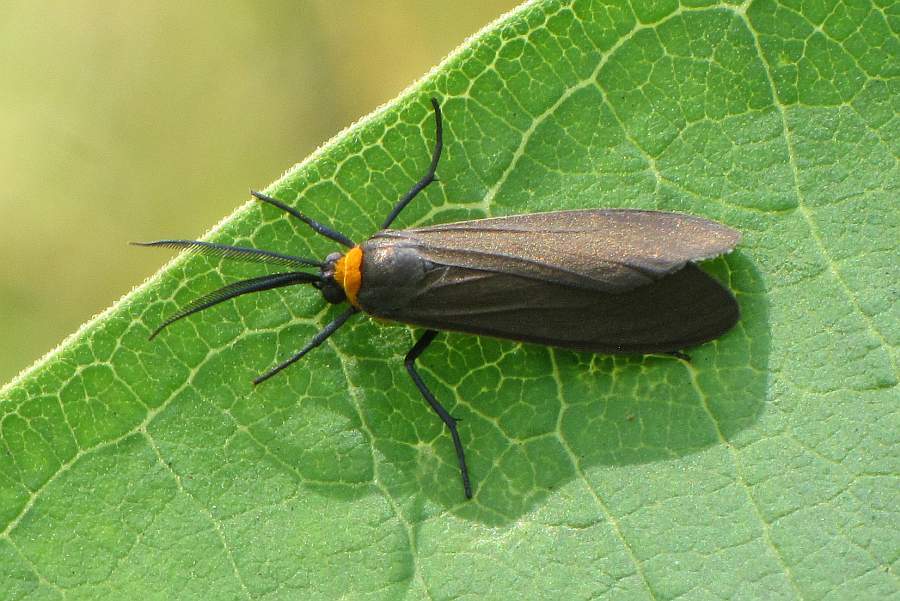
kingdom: Animalia
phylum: Arthropoda
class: Insecta
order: Lepidoptera
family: Erebidae
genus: Cisseps
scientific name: Cisseps fulvicollis
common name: Yellow-collared scape moth
